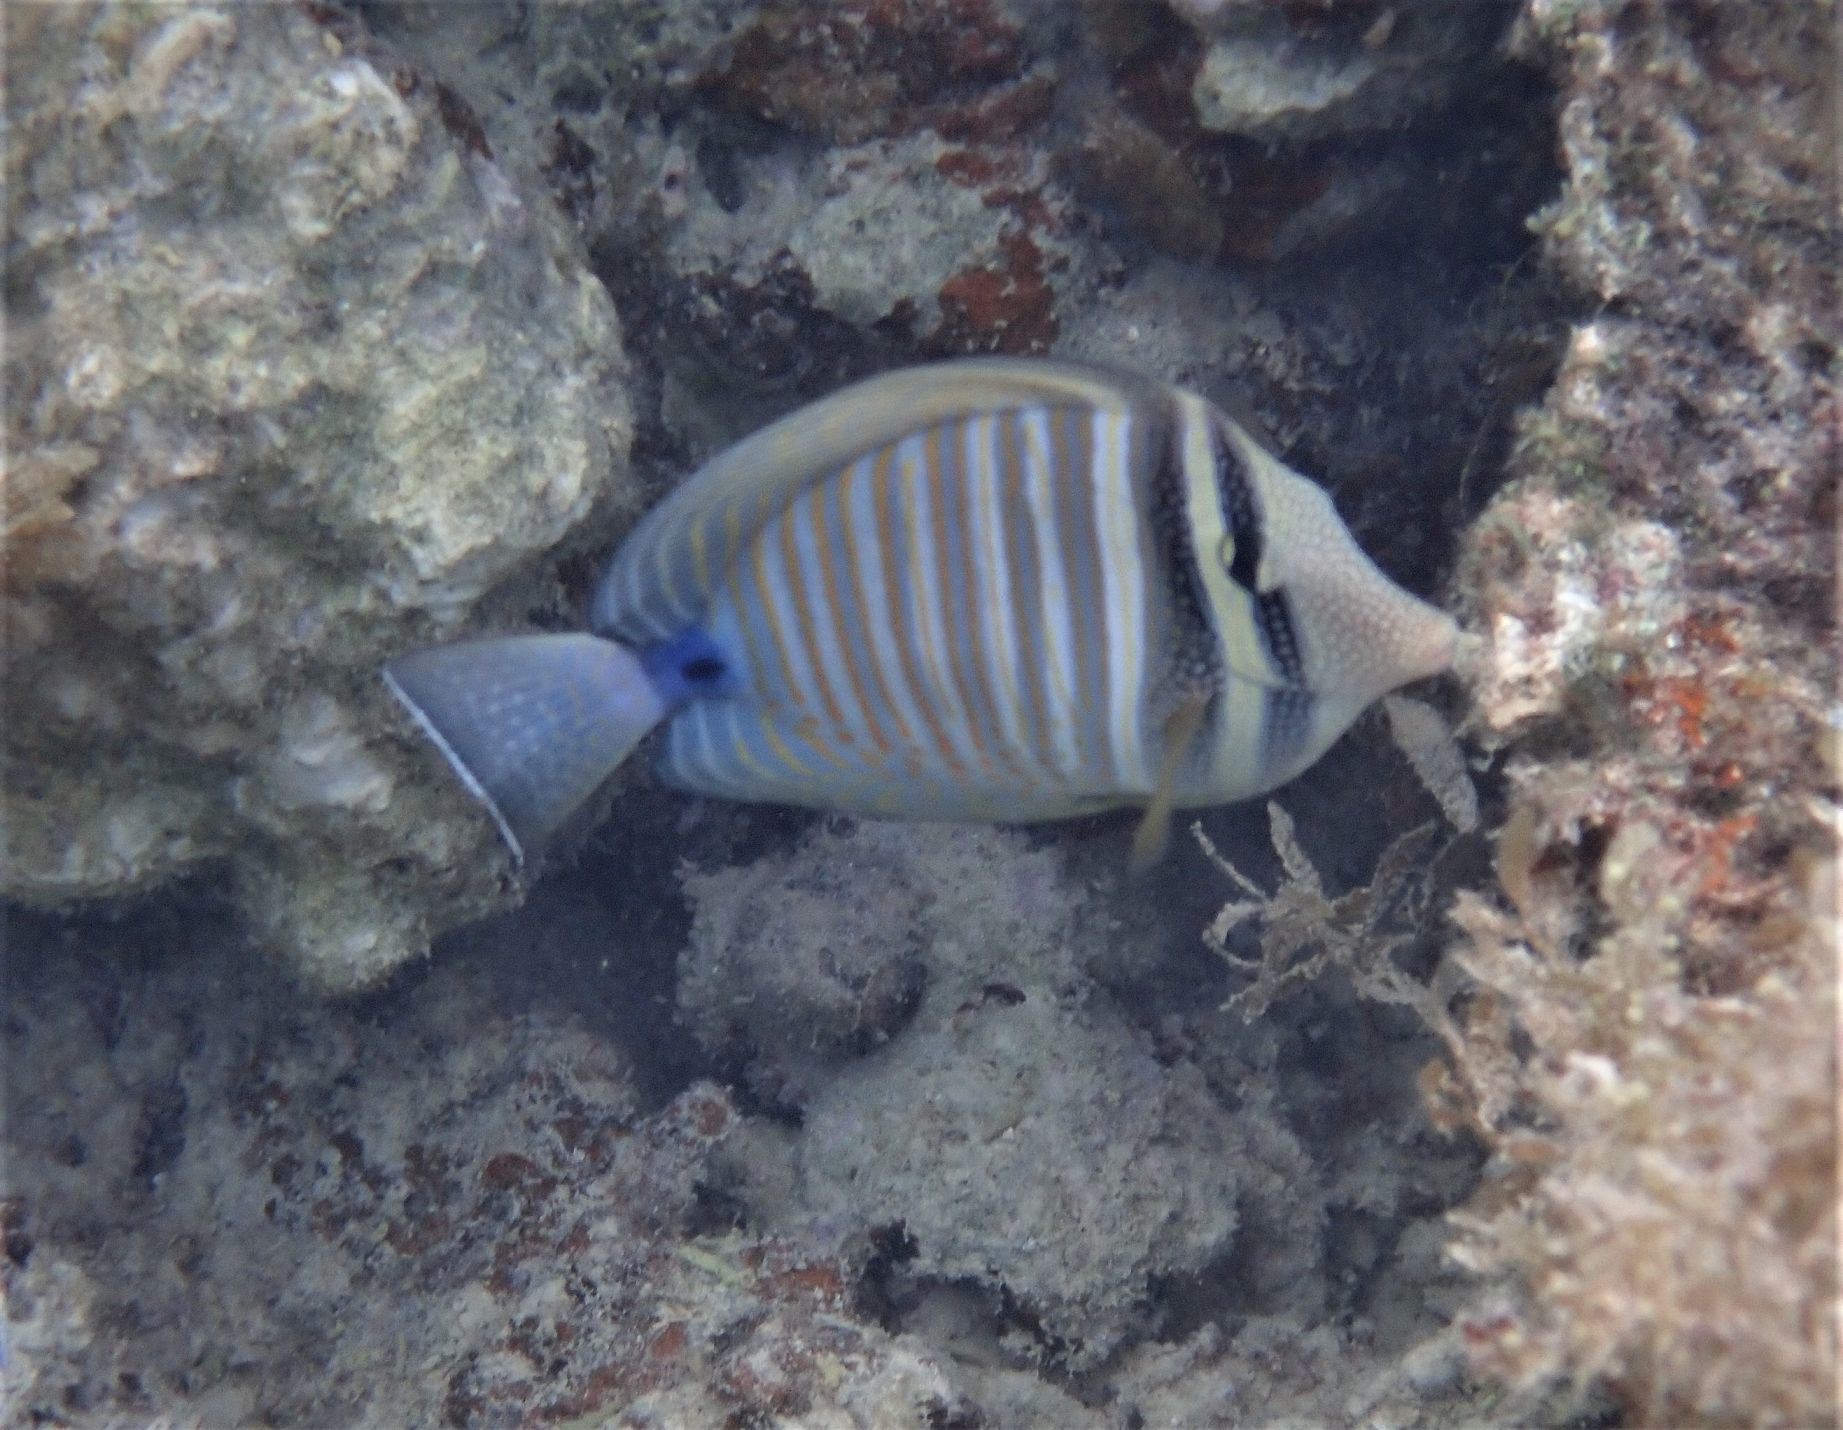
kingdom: Animalia
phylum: Chordata
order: Perciformes
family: Acanthuridae
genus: Zebrasoma
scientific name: Zebrasoma desjardinii
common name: Desjardin's sailfin tang
